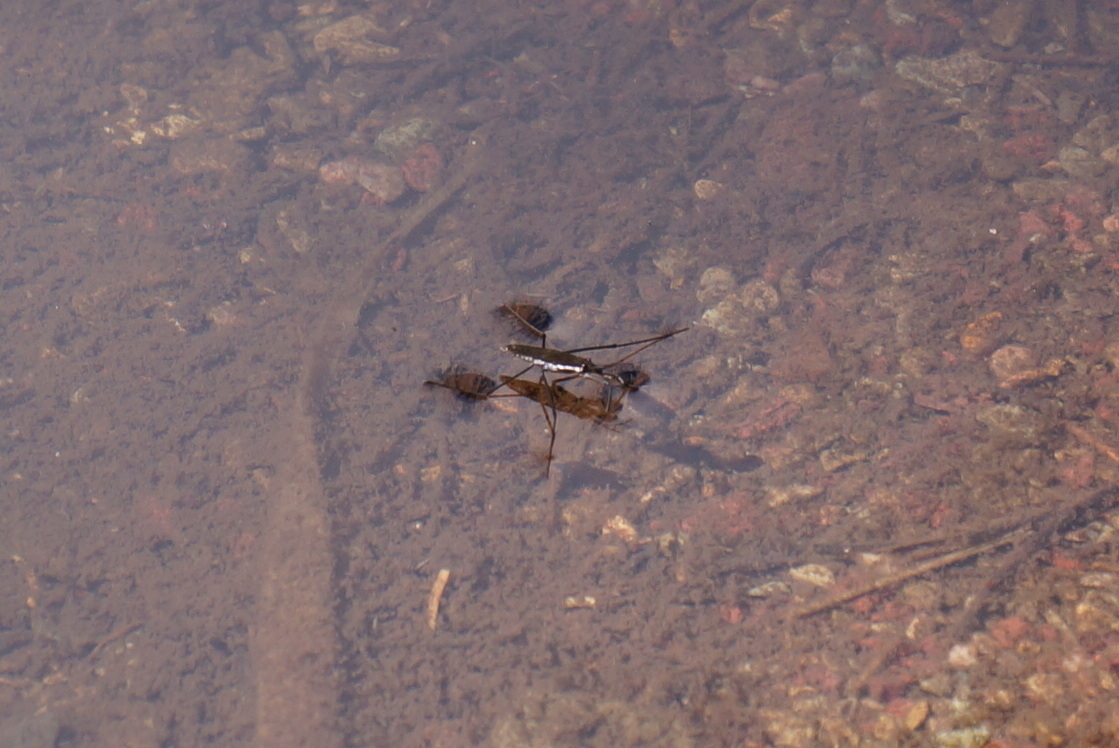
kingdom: Animalia
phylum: Arthropoda
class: Insecta
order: Hemiptera
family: Gerridae
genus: Aquarius
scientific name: Aquarius remigis
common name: Common water strider
